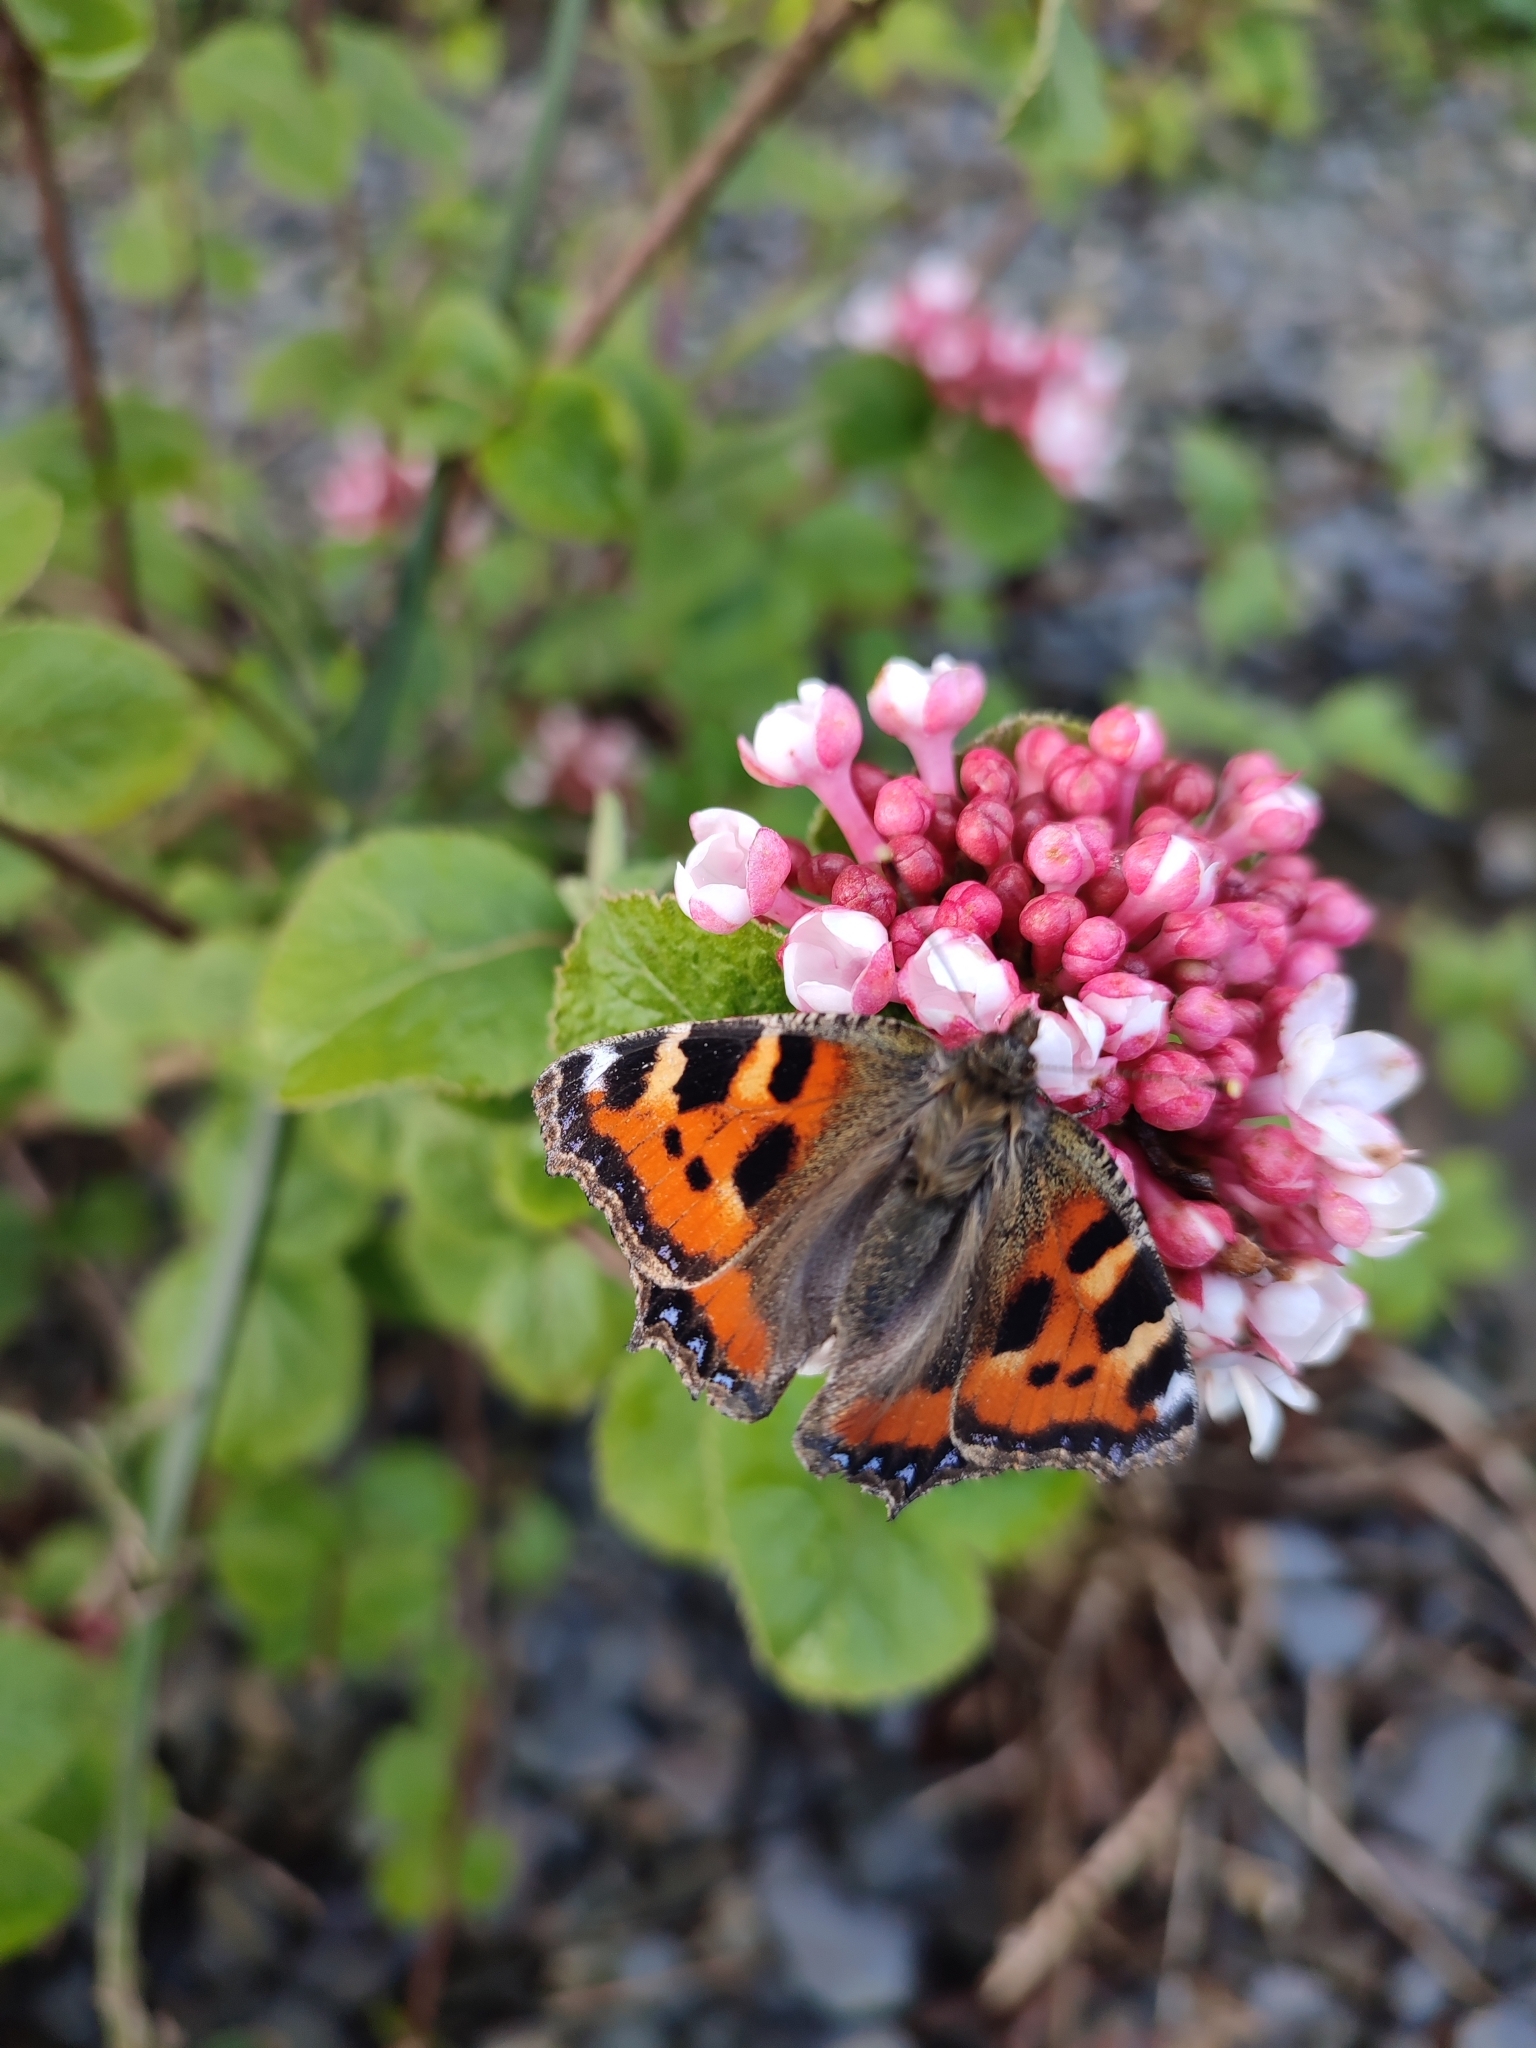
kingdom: Animalia
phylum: Arthropoda
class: Insecta
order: Lepidoptera
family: Nymphalidae
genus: Aglais
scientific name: Aglais urticae
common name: Small tortoiseshell
